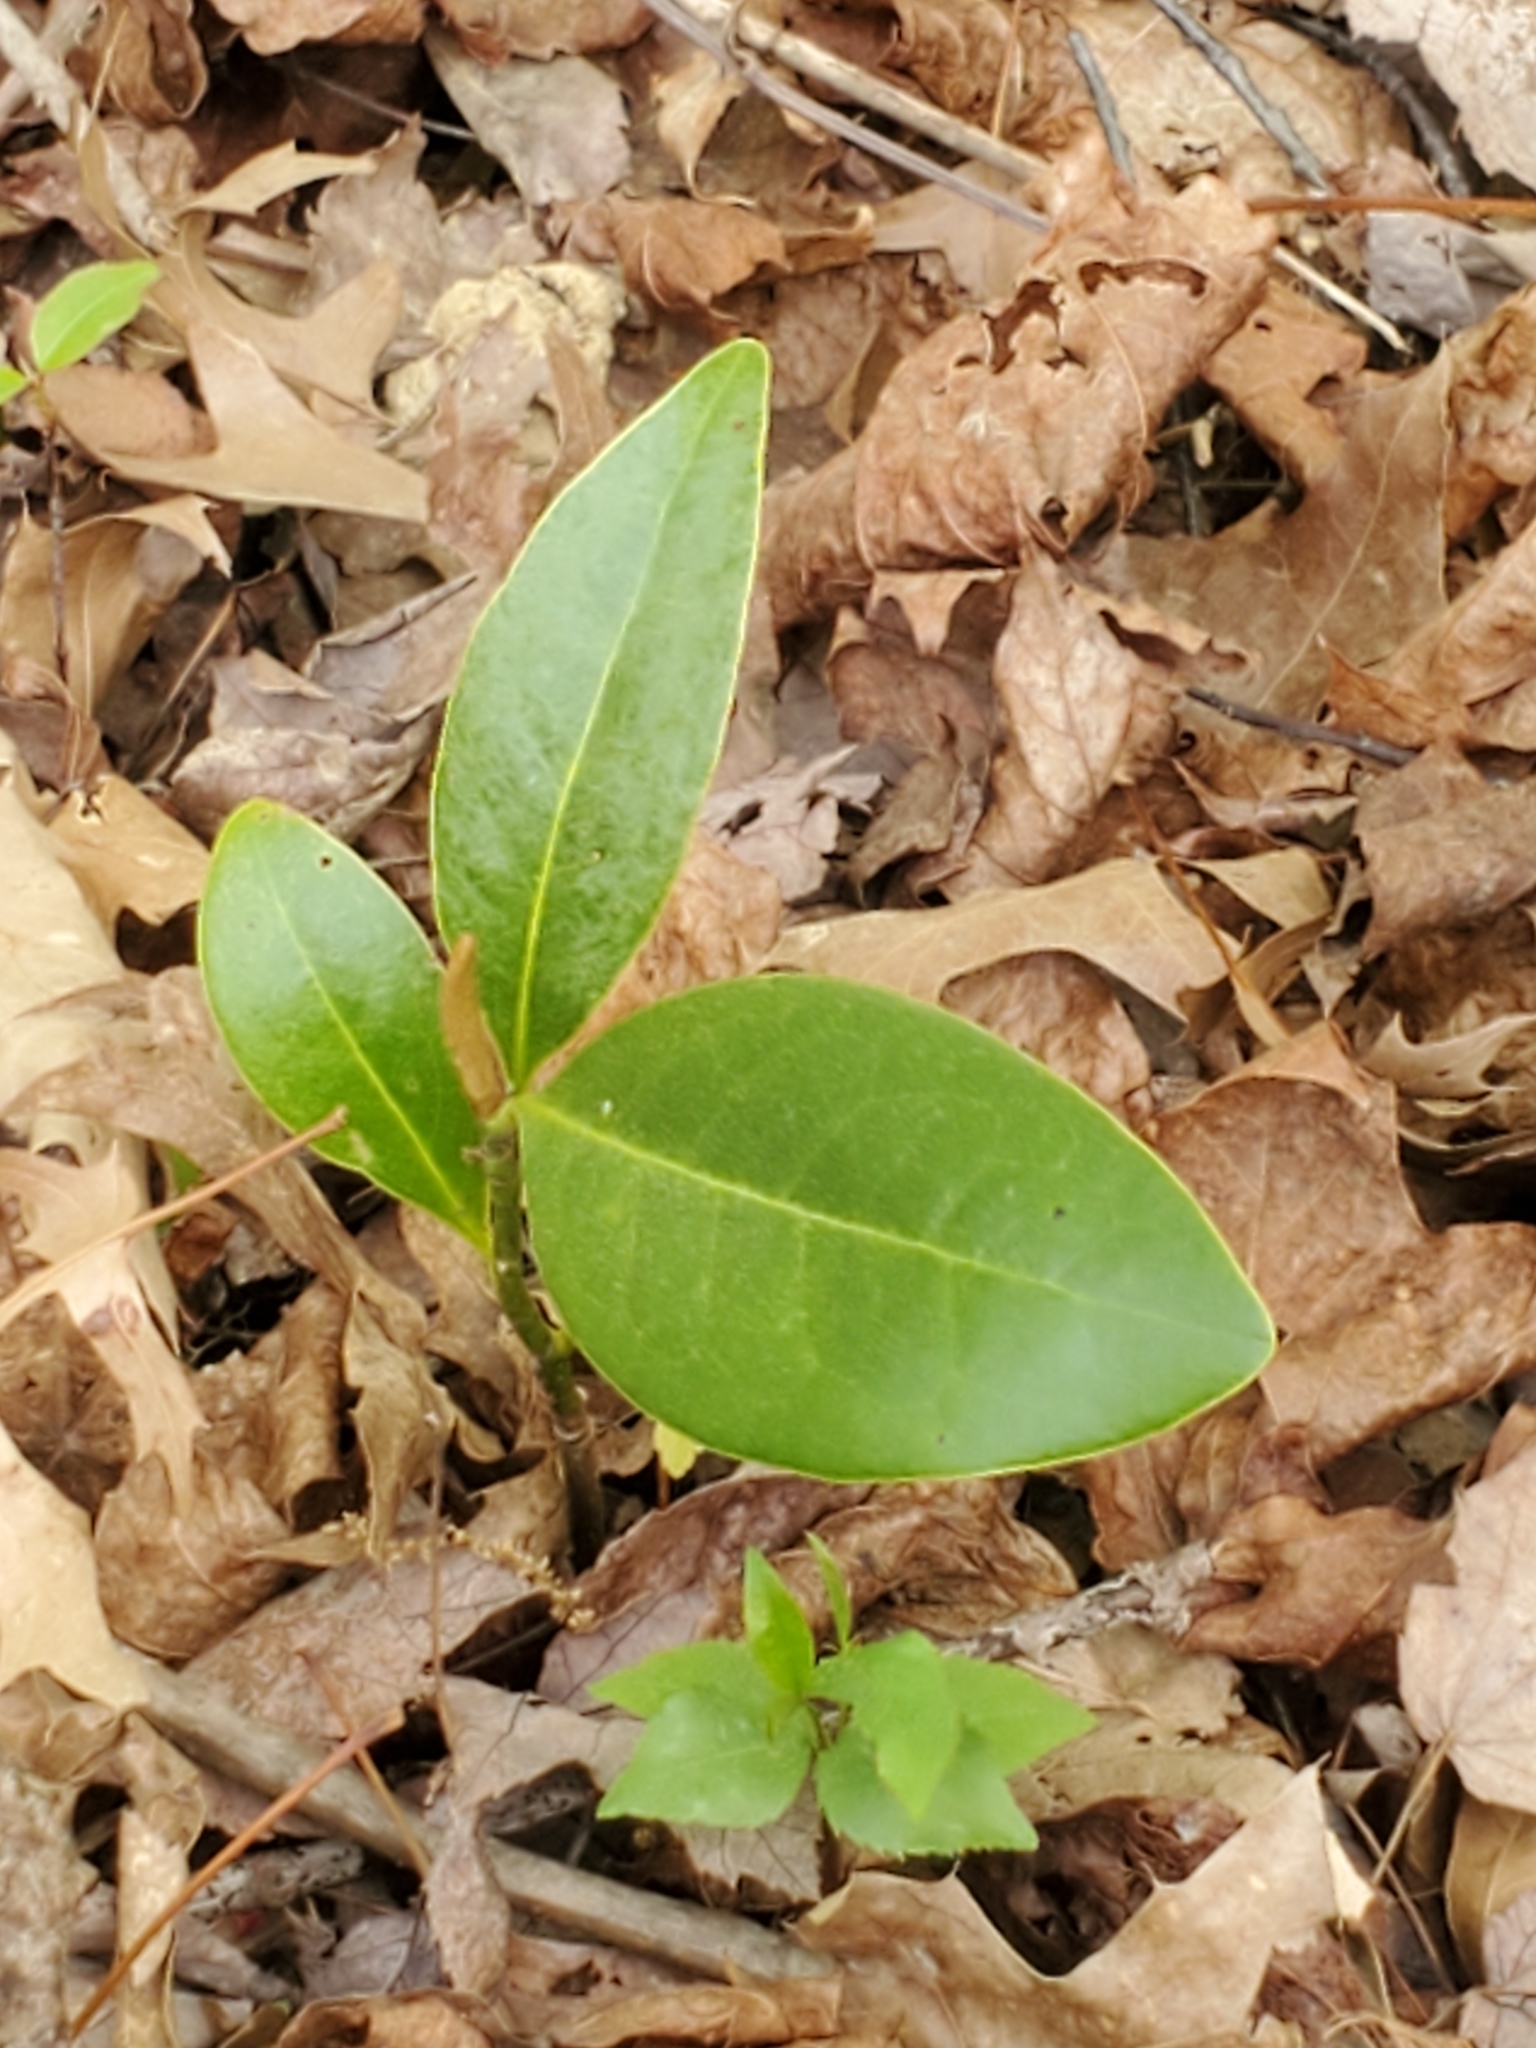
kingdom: Plantae
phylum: Tracheophyta
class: Magnoliopsida
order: Magnoliales
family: Magnoliaceae
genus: Magnolia
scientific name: Magnolia grandiflora
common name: Southern magnolia
